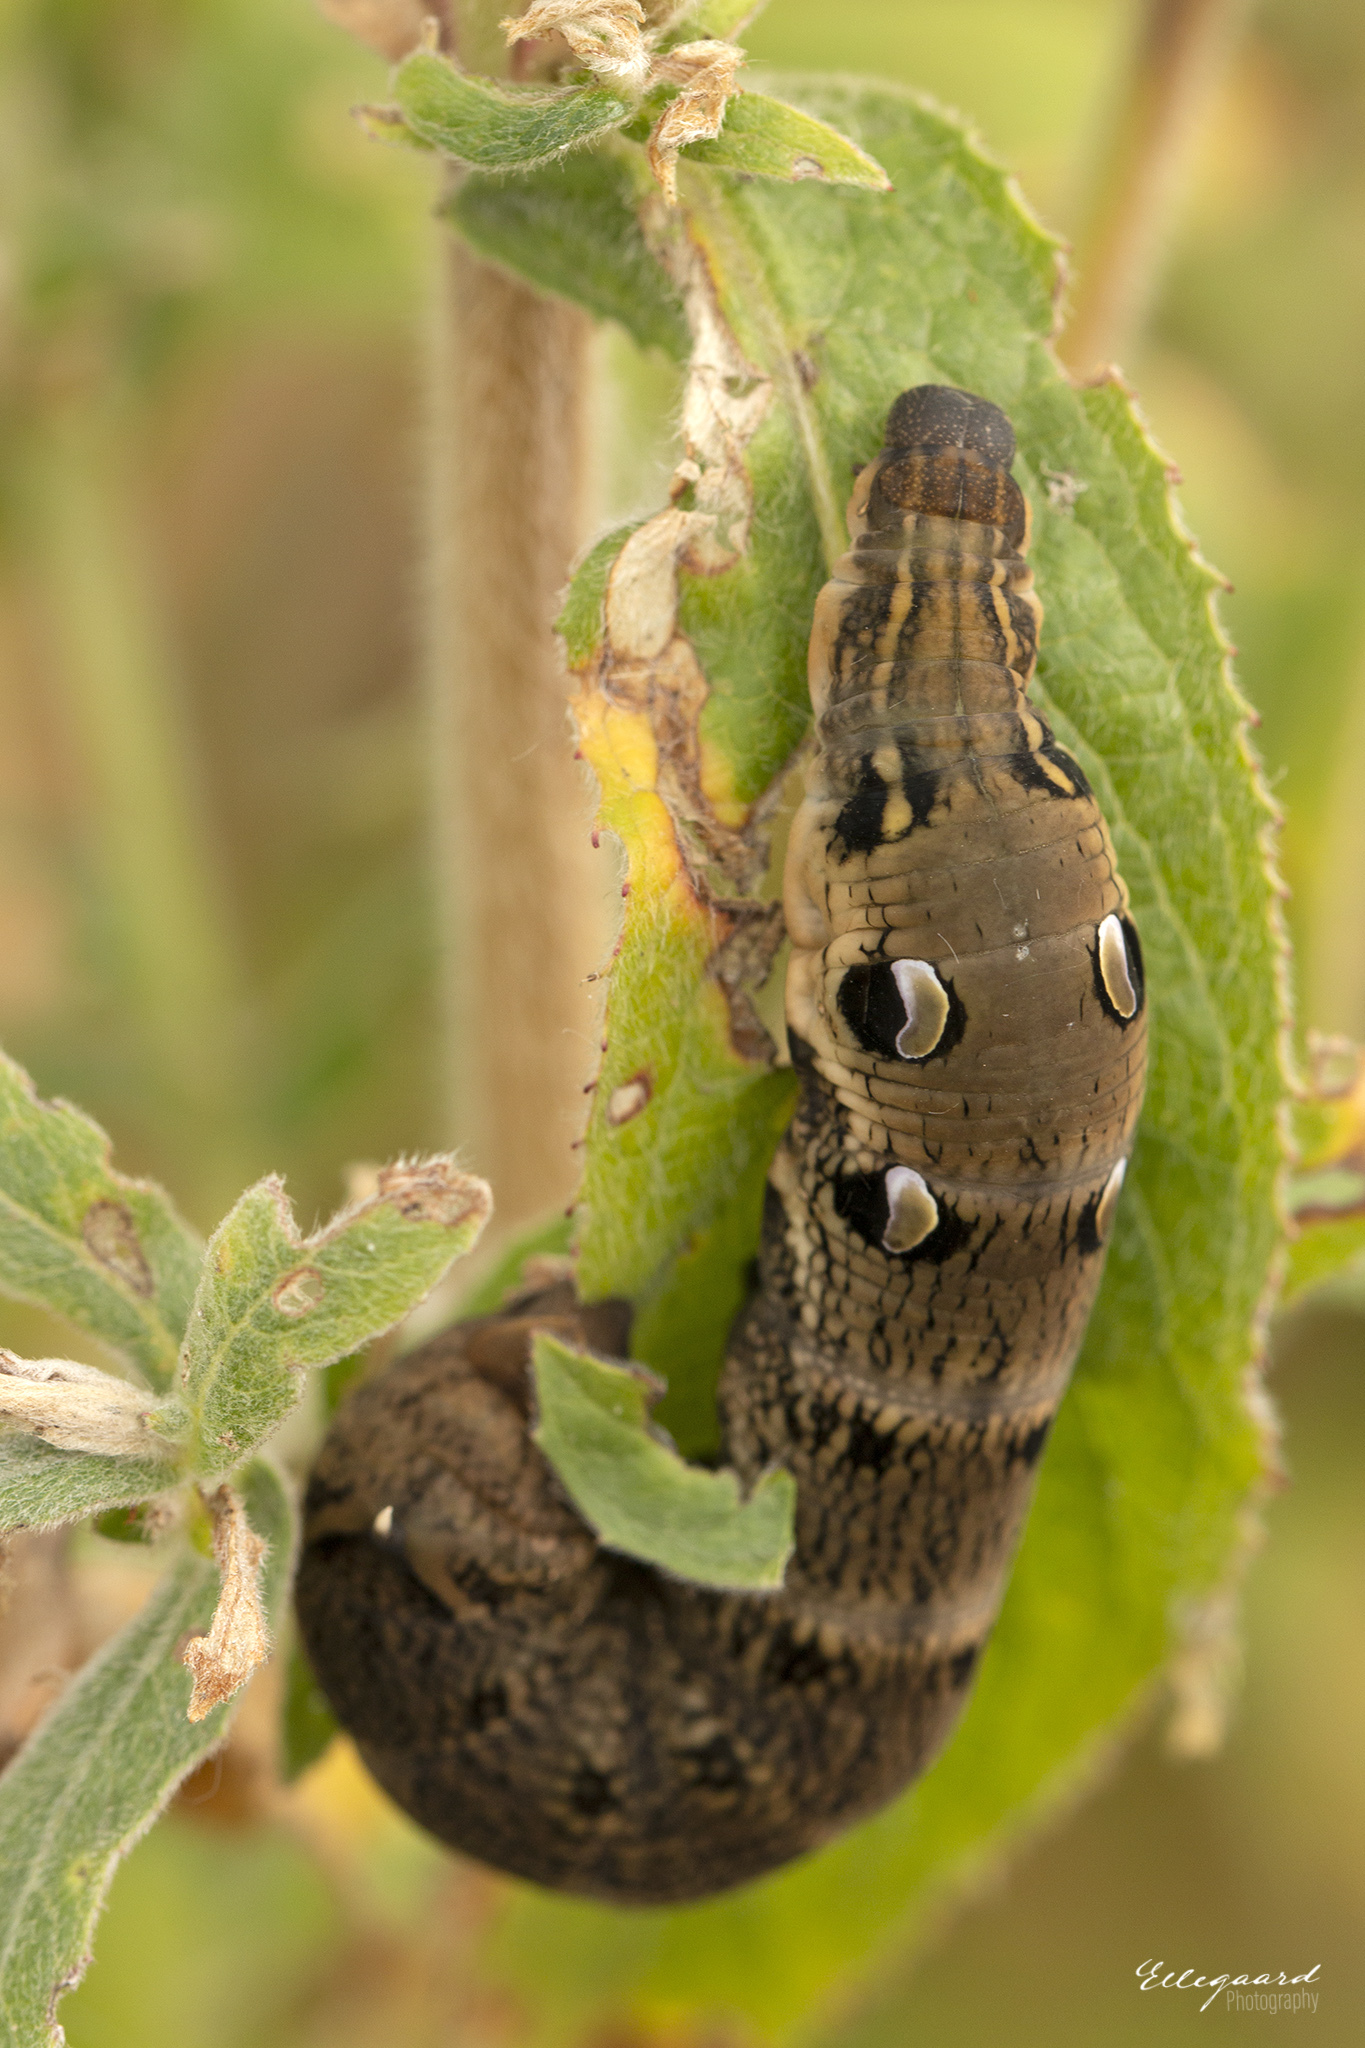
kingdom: Animalia
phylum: Arthropoda
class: Insecta
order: Lepidoptera
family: Sphingidae
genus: Deilephila
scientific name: Deilephila elpenor
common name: Elephant hawk-moth
